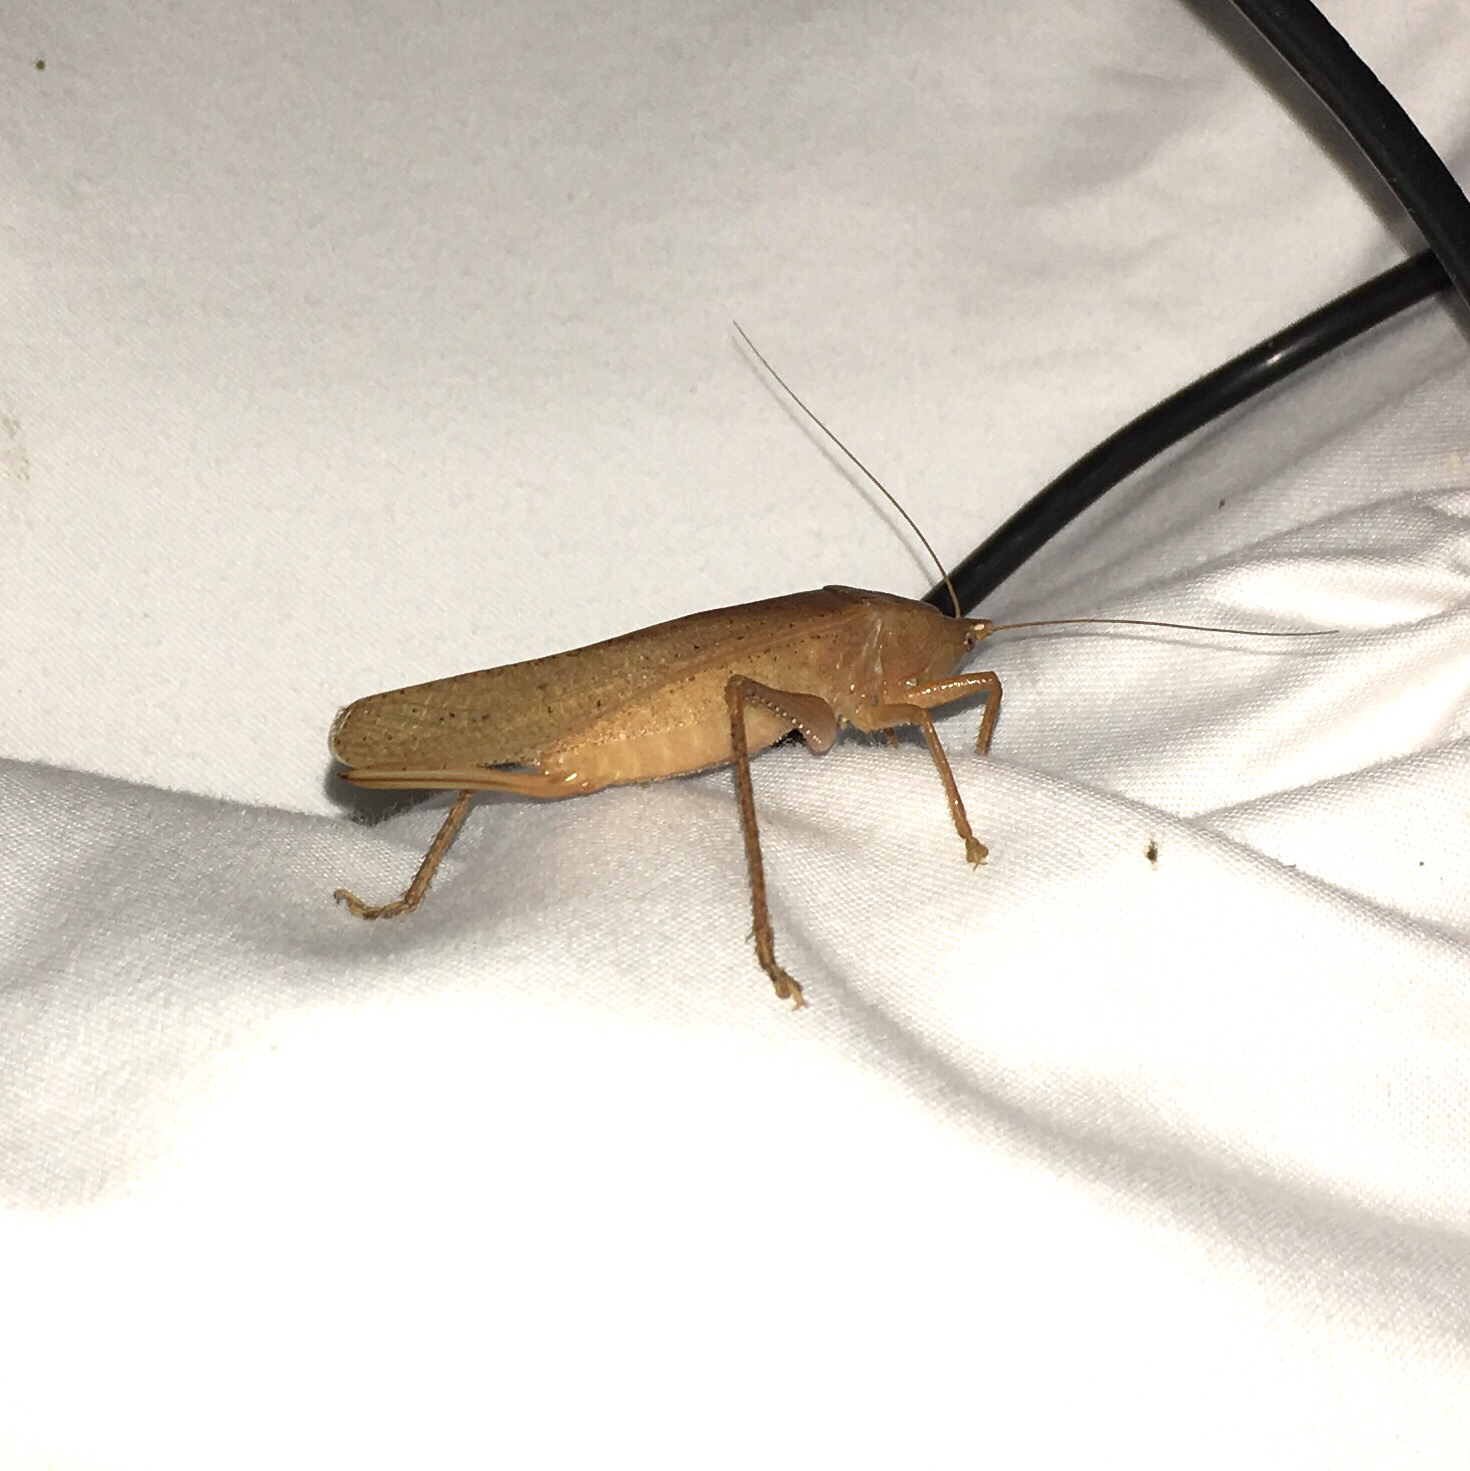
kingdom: Animalia
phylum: Arthropoda
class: Insecta
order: Orthoptera
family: Tettigoniidae
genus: Pyrgocorypha
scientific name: Pyrgocorypha uncinata
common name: Hook-faced conehead
